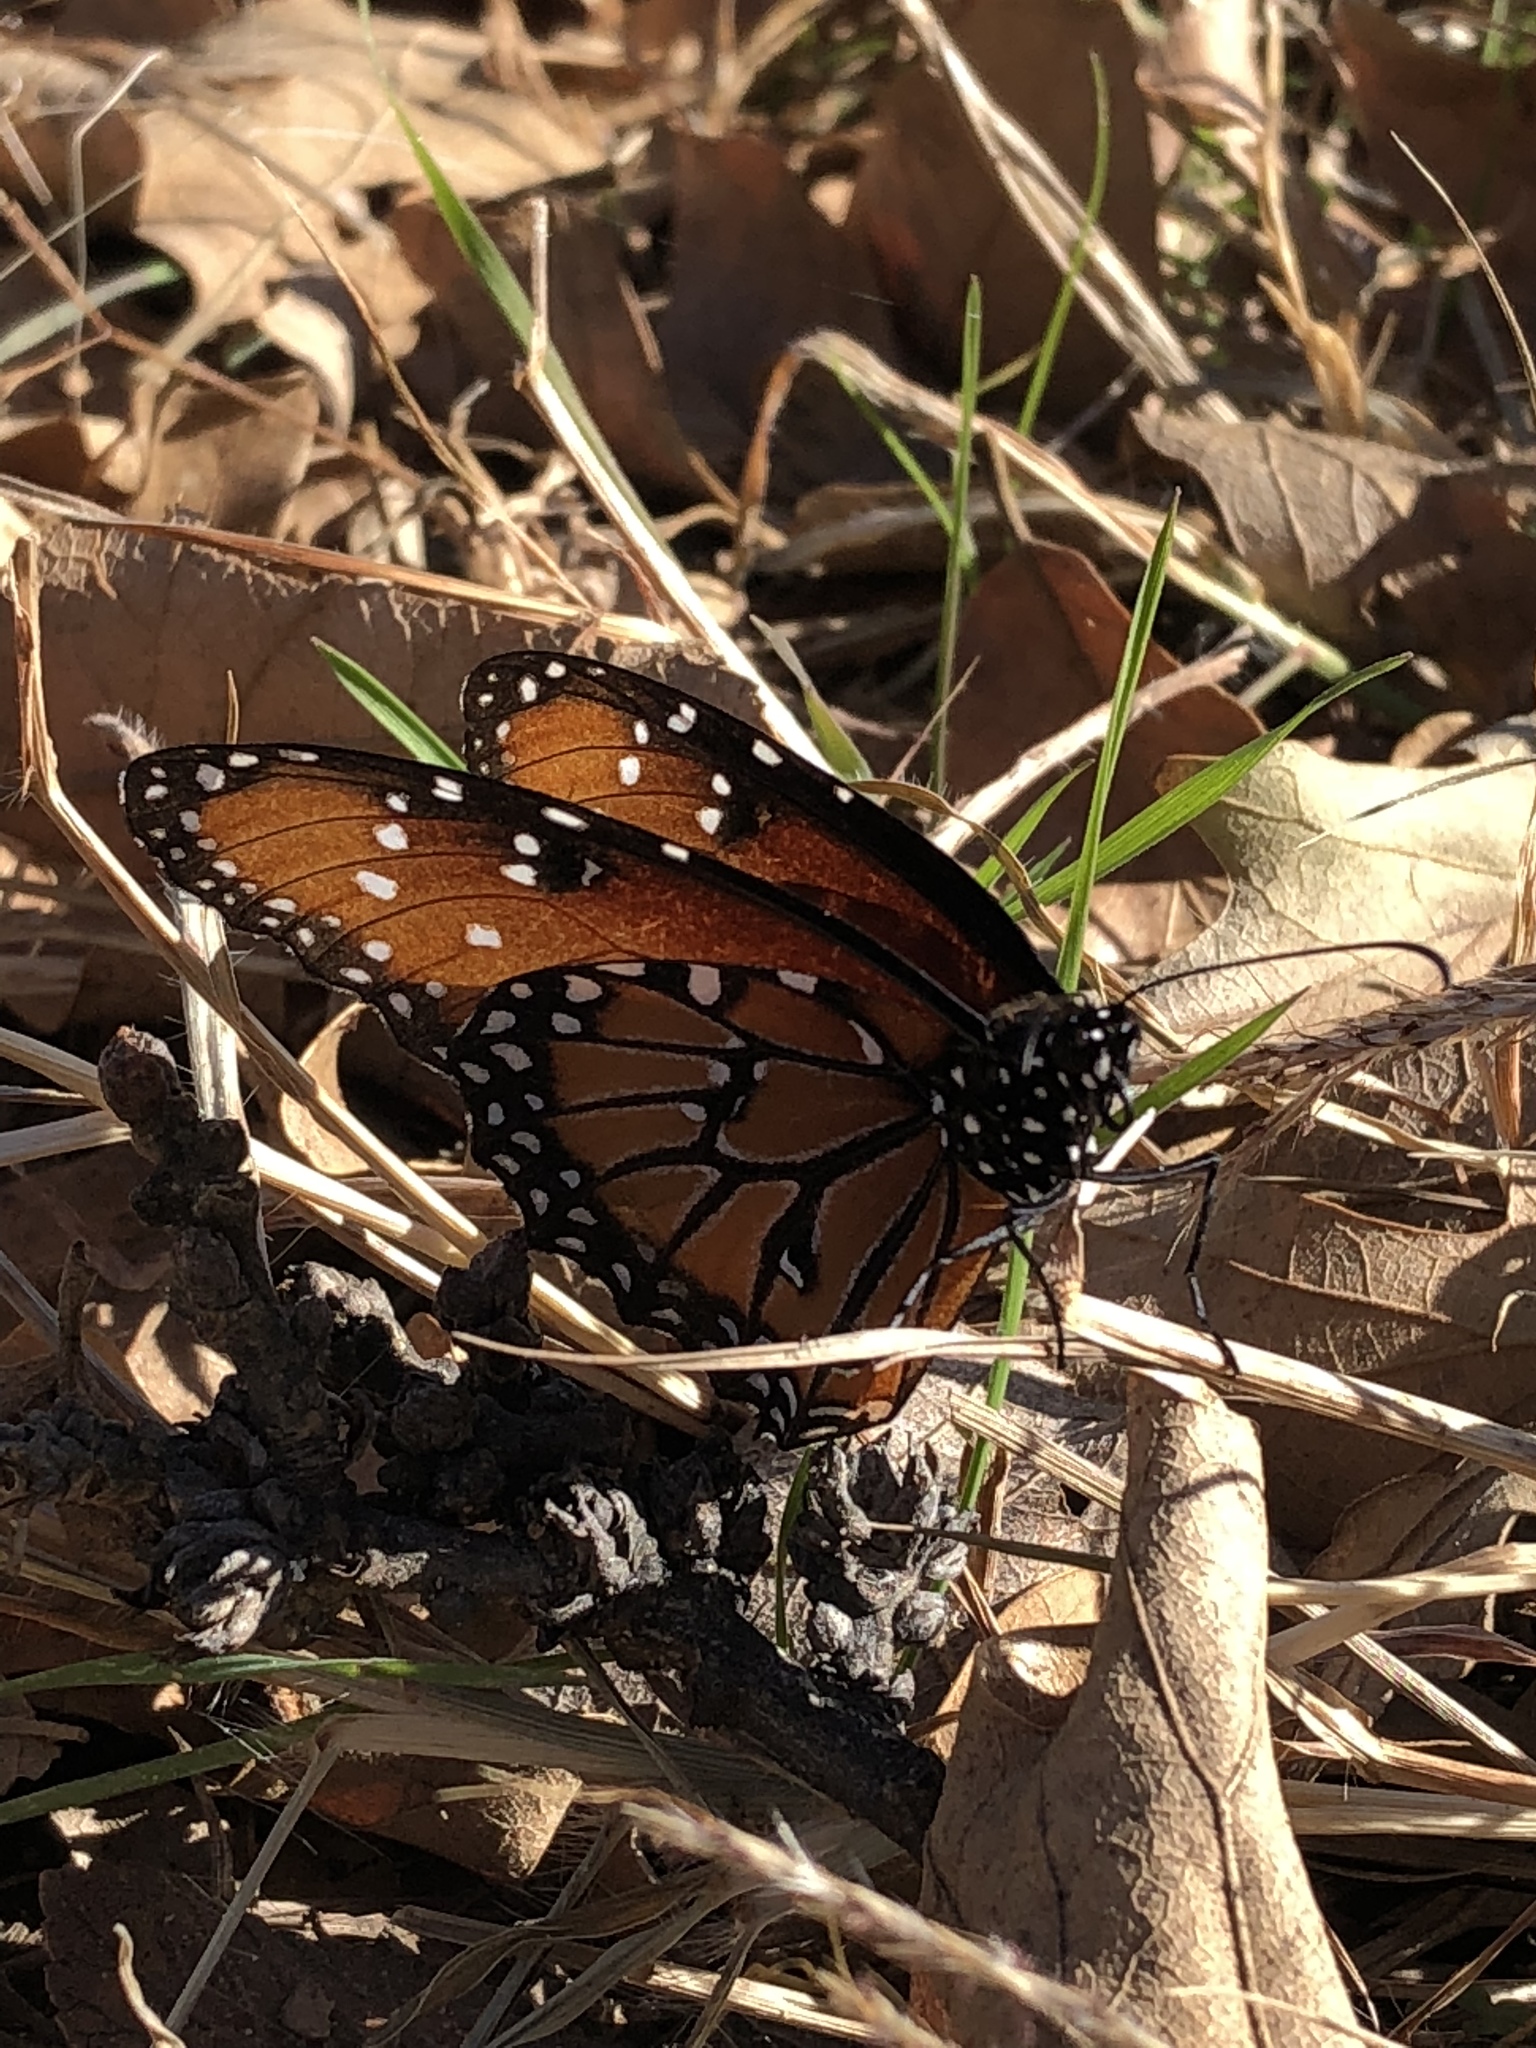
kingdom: Animalia
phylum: Arthropoda
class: Insecta
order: Lepidoptera
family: Nymphalidae
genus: Danaus
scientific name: Danaus gilippus
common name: Queen
